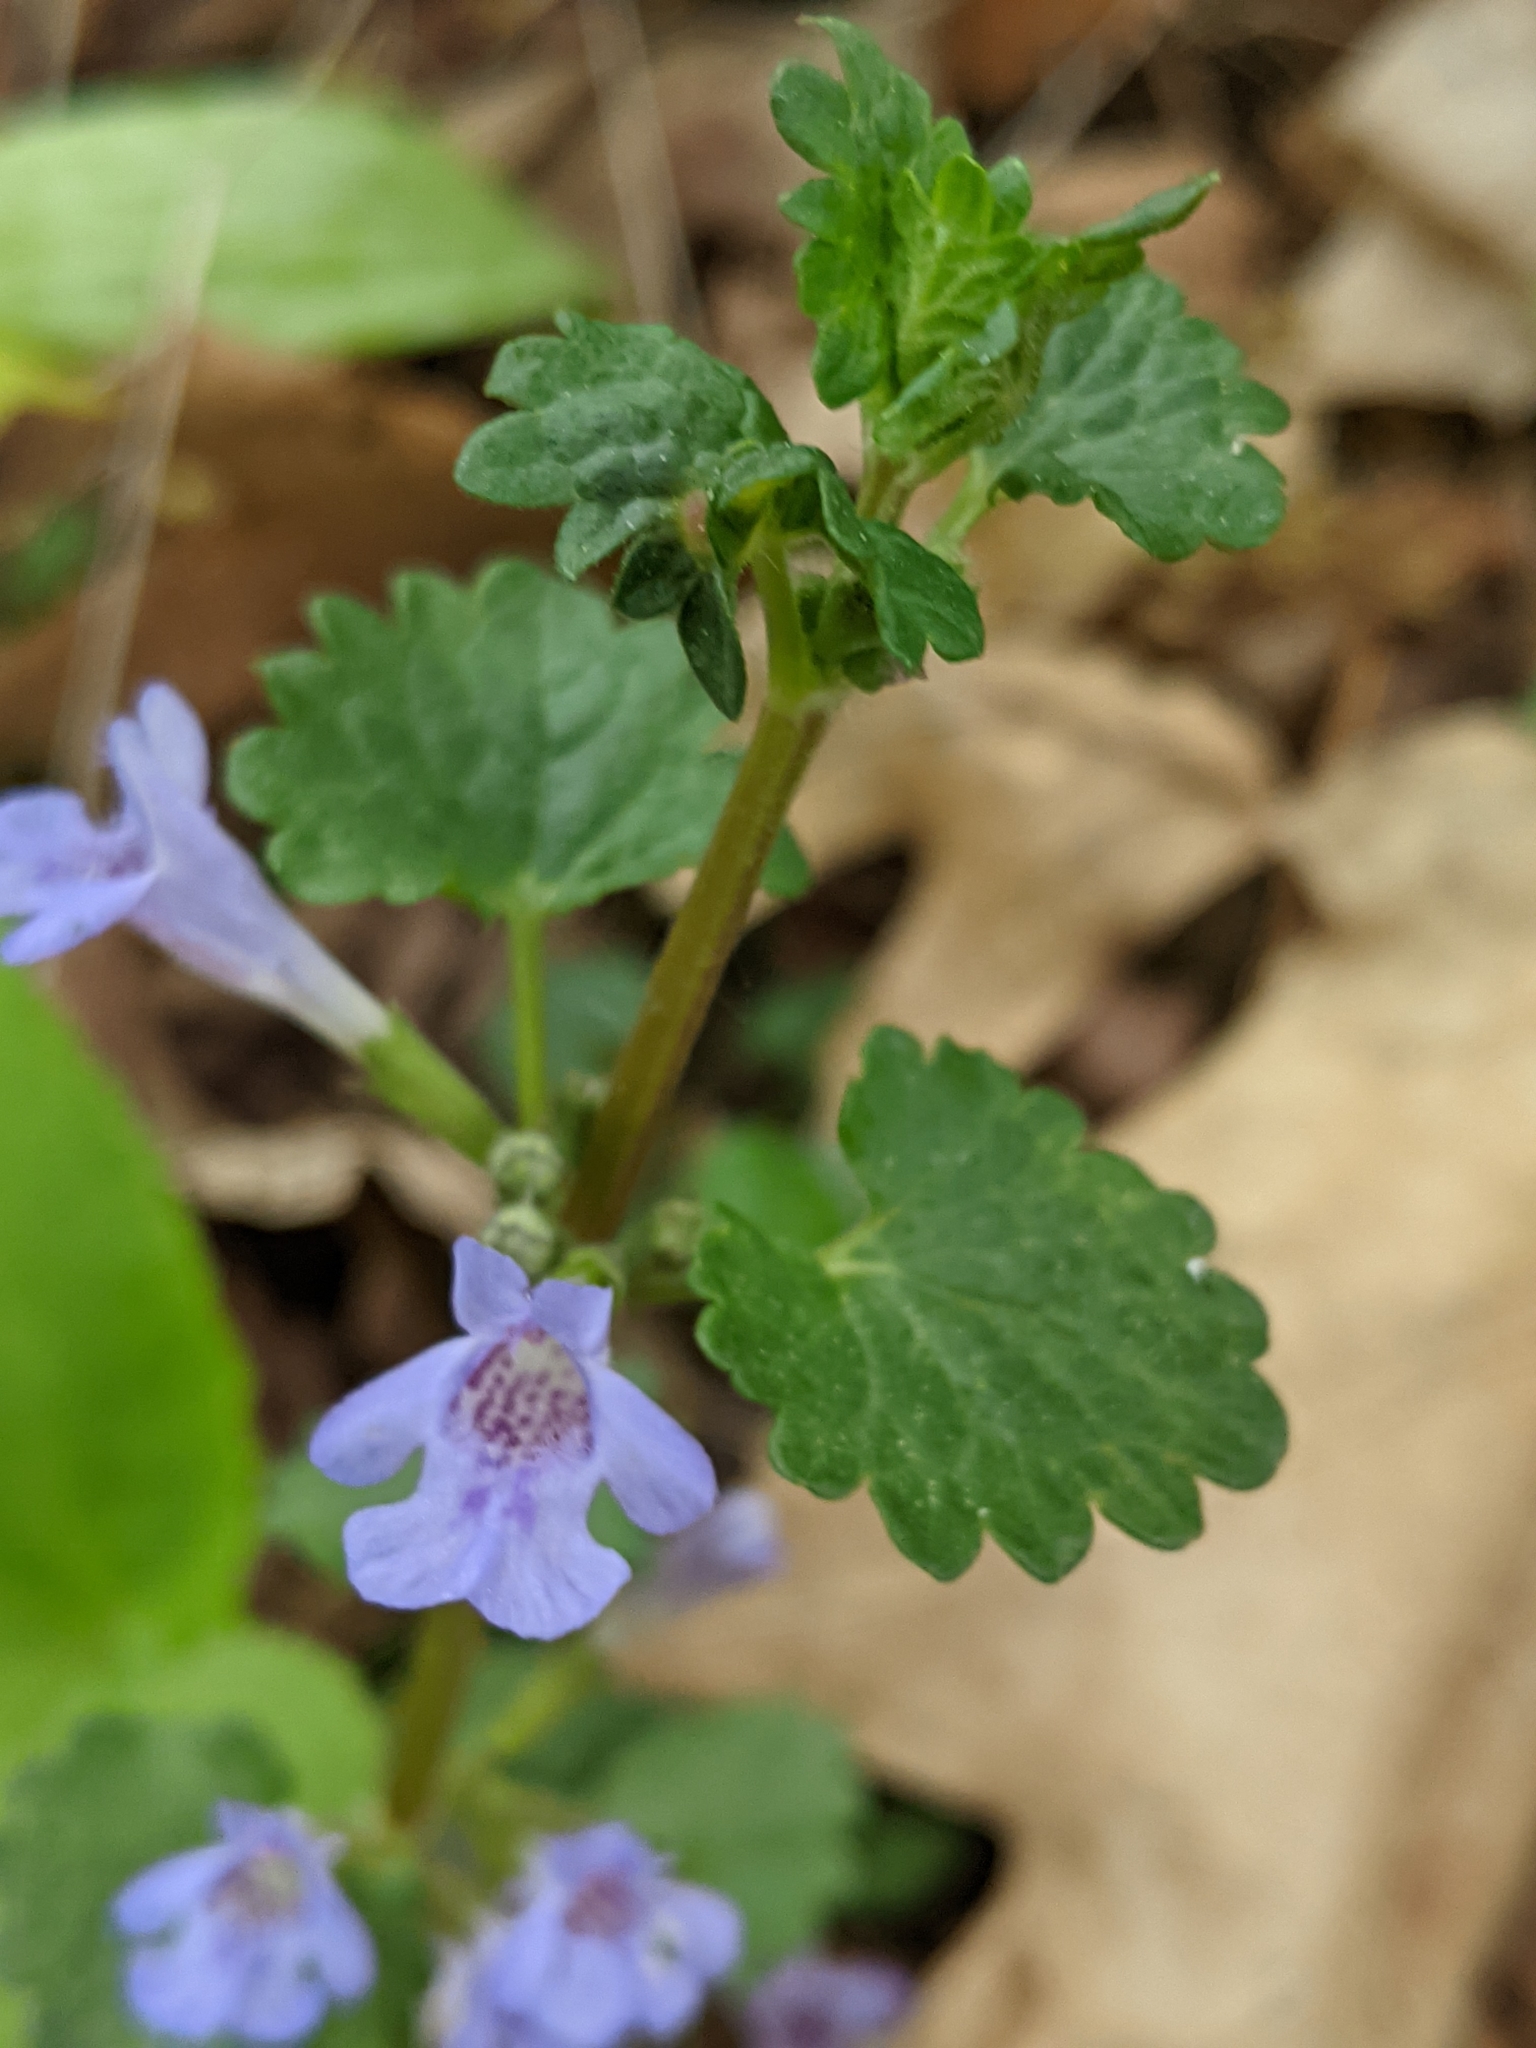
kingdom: Plantae
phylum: Tracheophyta
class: Magnoliopsida
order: Lamiales
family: Lamiaceae
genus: Glechoma
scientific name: Glechoma hederacea
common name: Ground ivy
